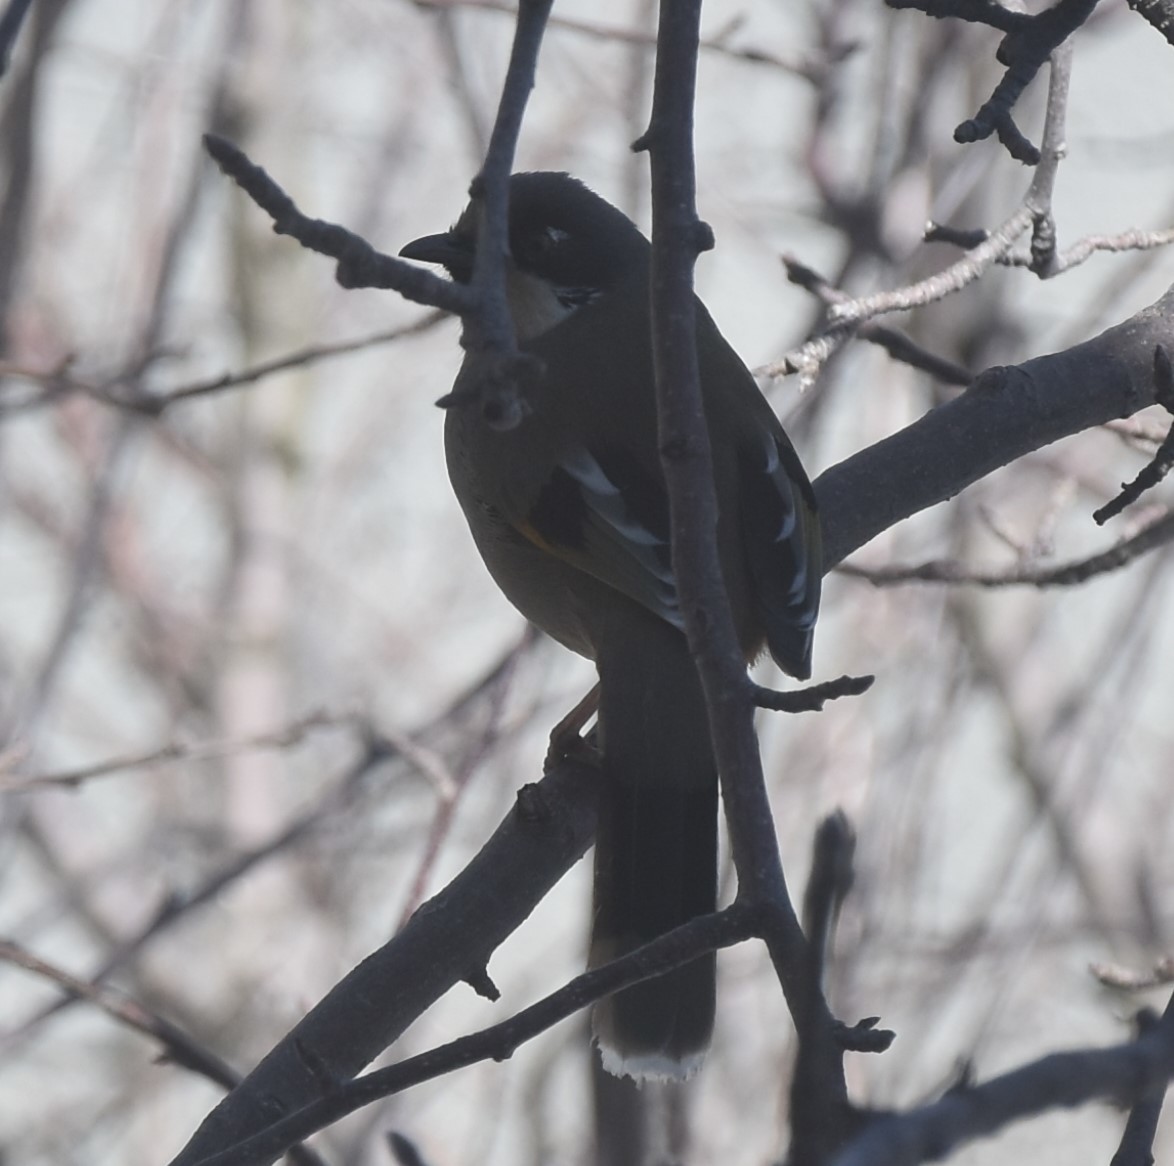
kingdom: Animalia
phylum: Chordata
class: Aves
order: Passeriformes
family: Leiothrichidae
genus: Trochalopteron
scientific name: Trochalopteron variegatum
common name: Variegated laughingthrush
